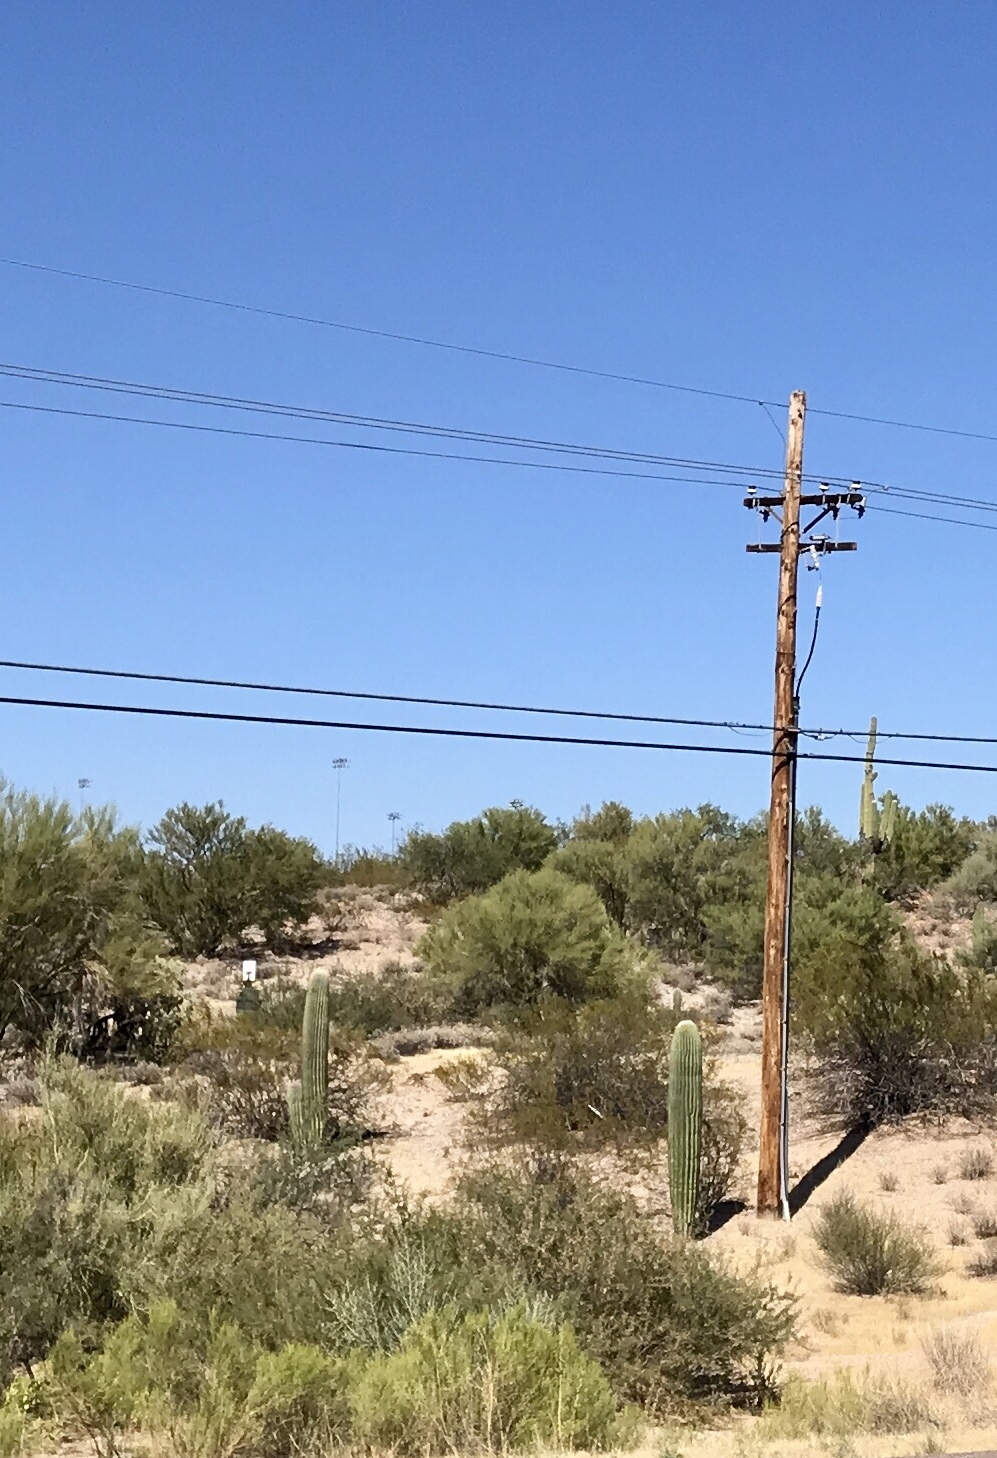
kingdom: Plantae
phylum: Tracheophyta
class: Magnoliopsida
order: Caryophyllales
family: Cactaceae
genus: Carnegiea
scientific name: Carnegiea gigantea
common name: Saguaro
